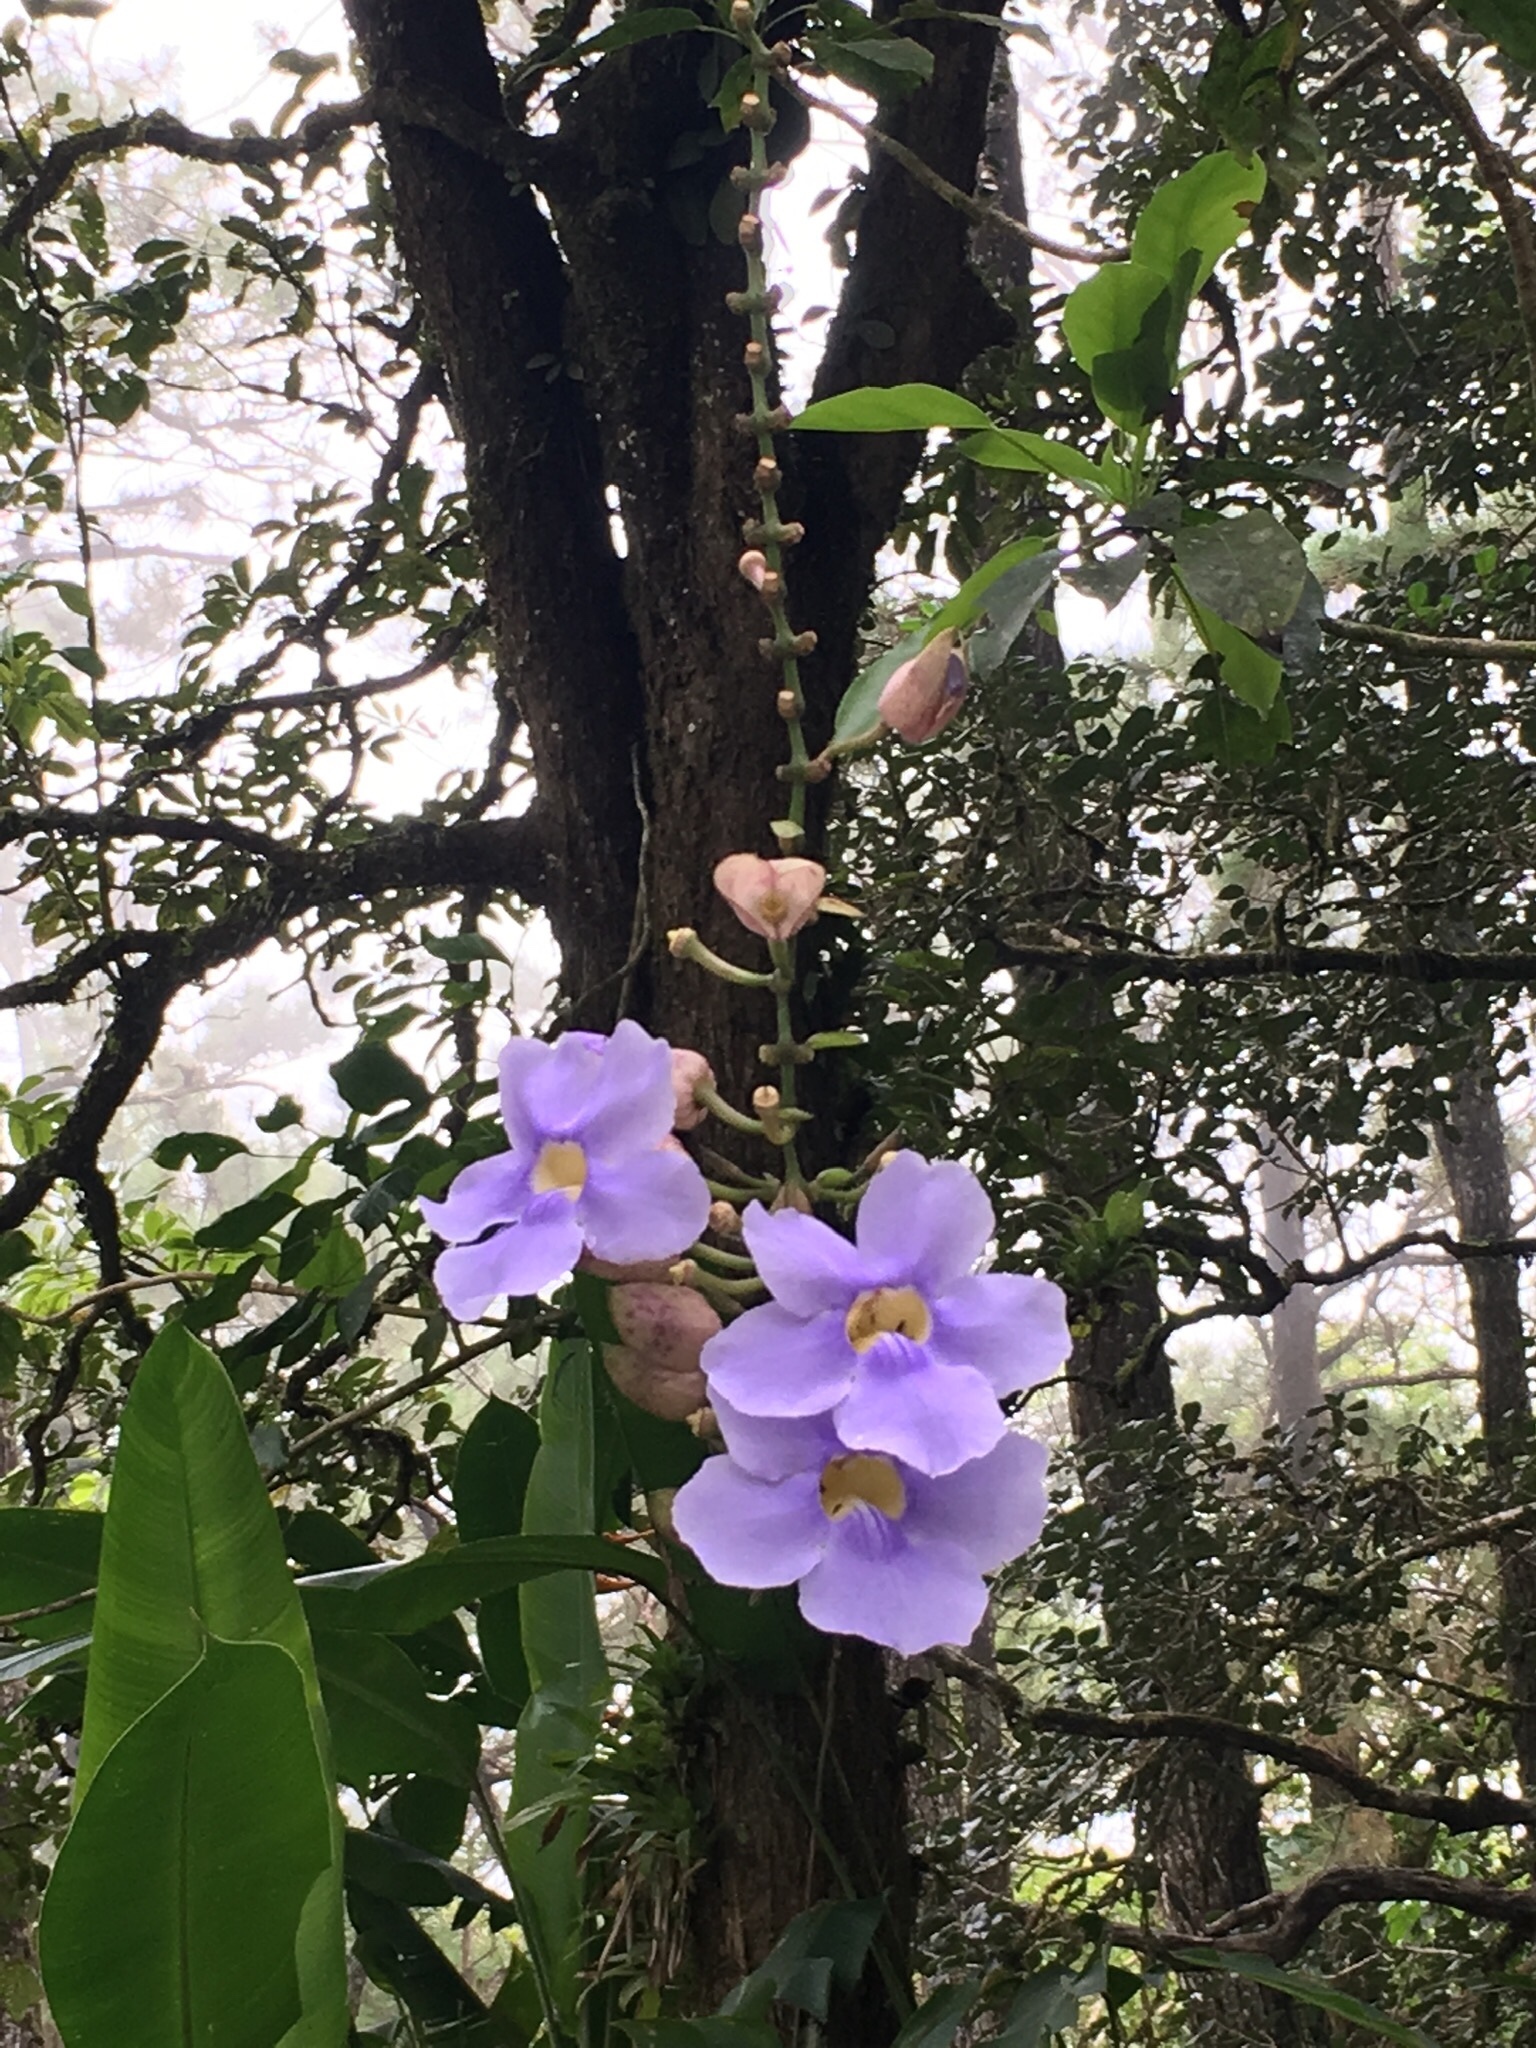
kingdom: Plantae
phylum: Tracheophyta
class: Magnoliopsida
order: Lamiales
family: Acanthaceae
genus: Thunbergia
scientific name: Thunbergia grandiflora
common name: Bengal trumpet
